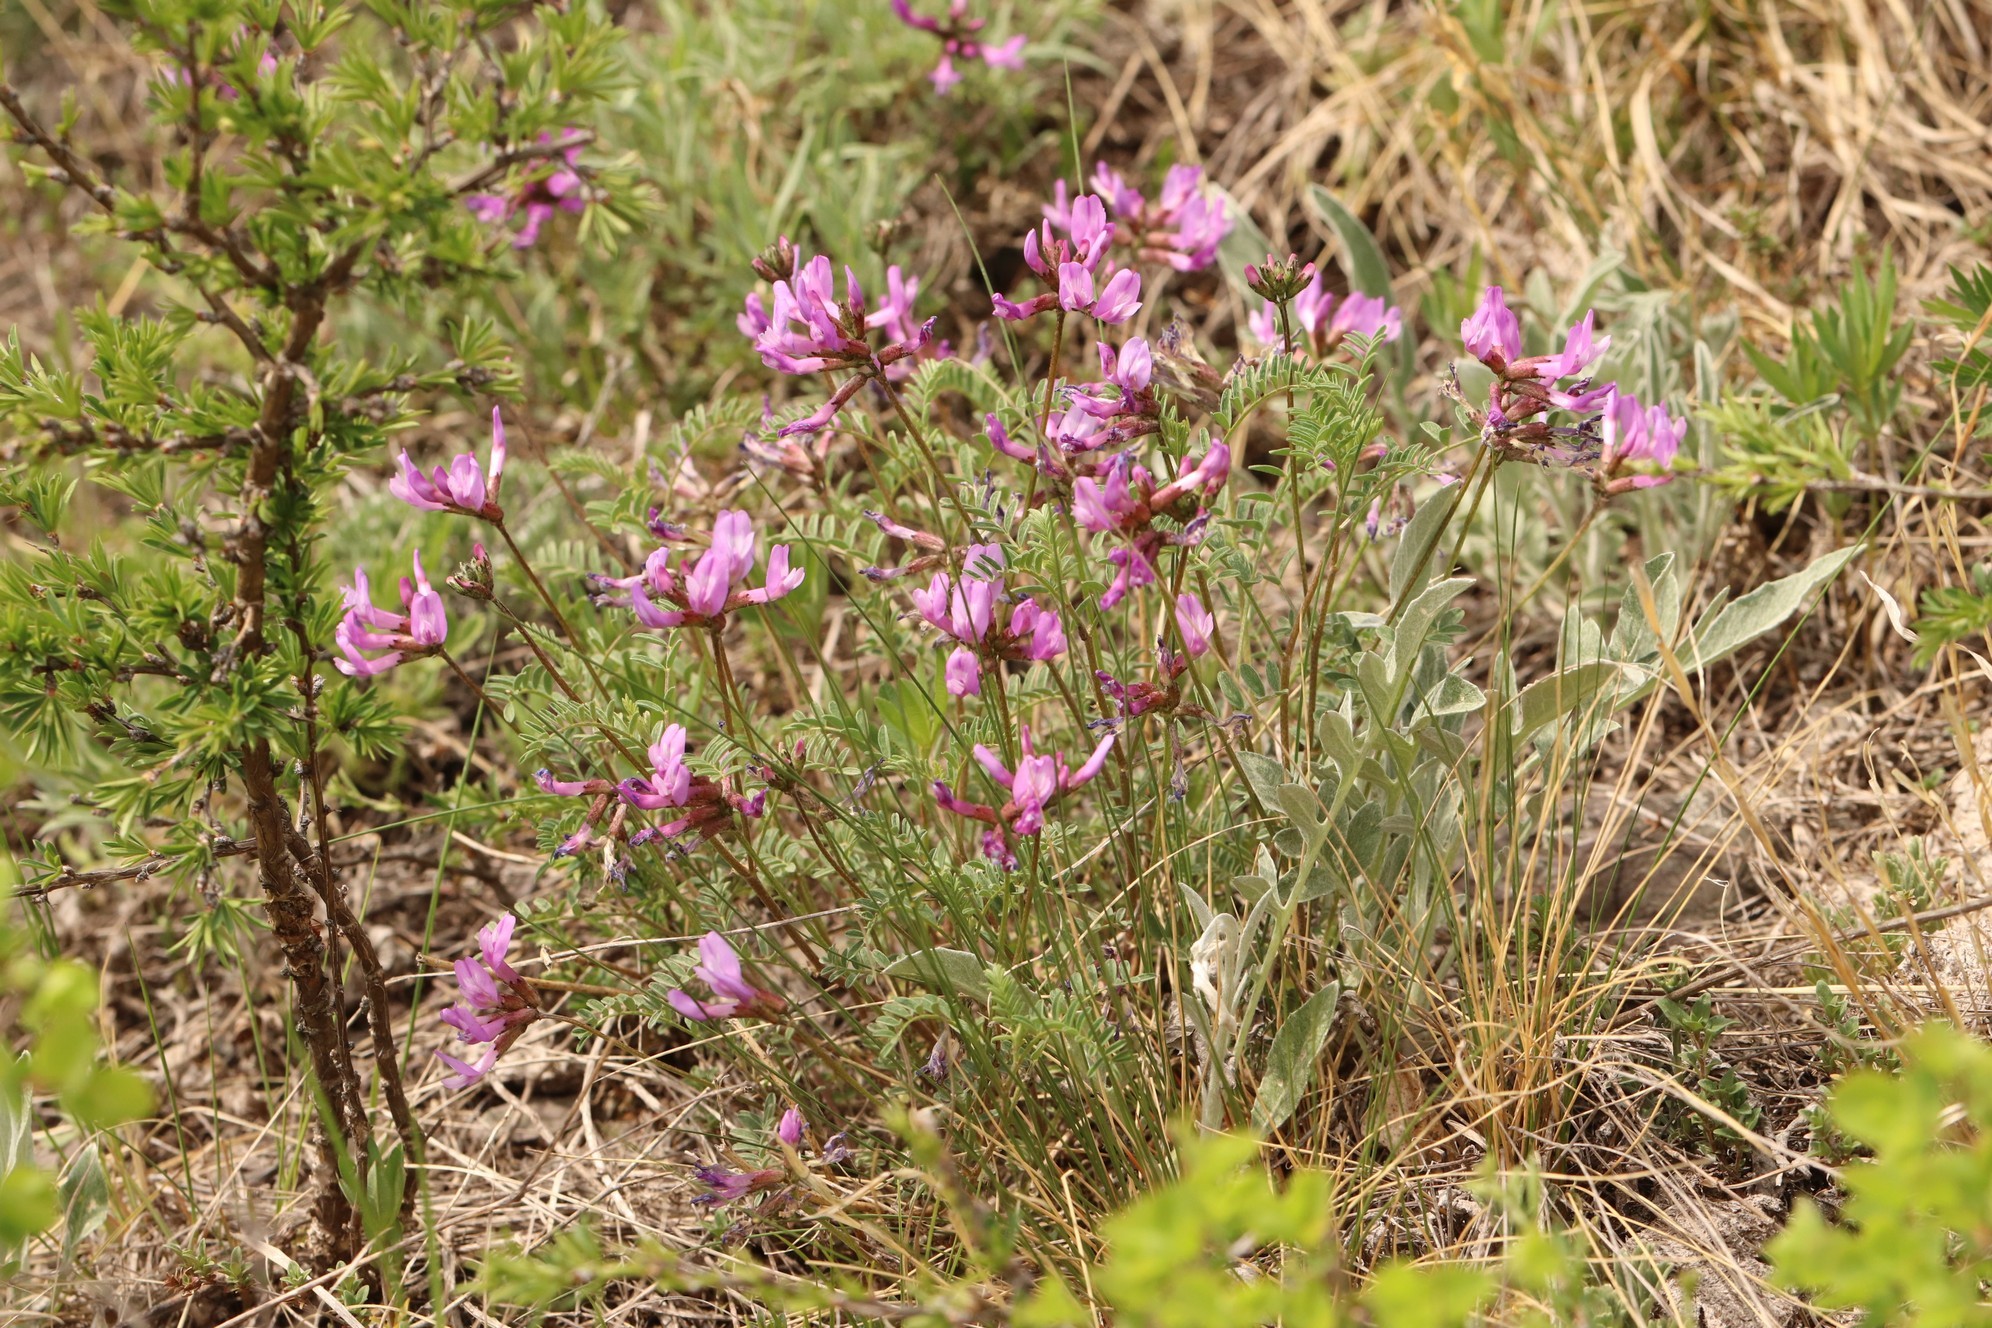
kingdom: Plantae
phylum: Tracheophyta
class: Magnoliopsida
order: Fabales
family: Fabaceae
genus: Astragalus
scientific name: Astragalus ceratoides
